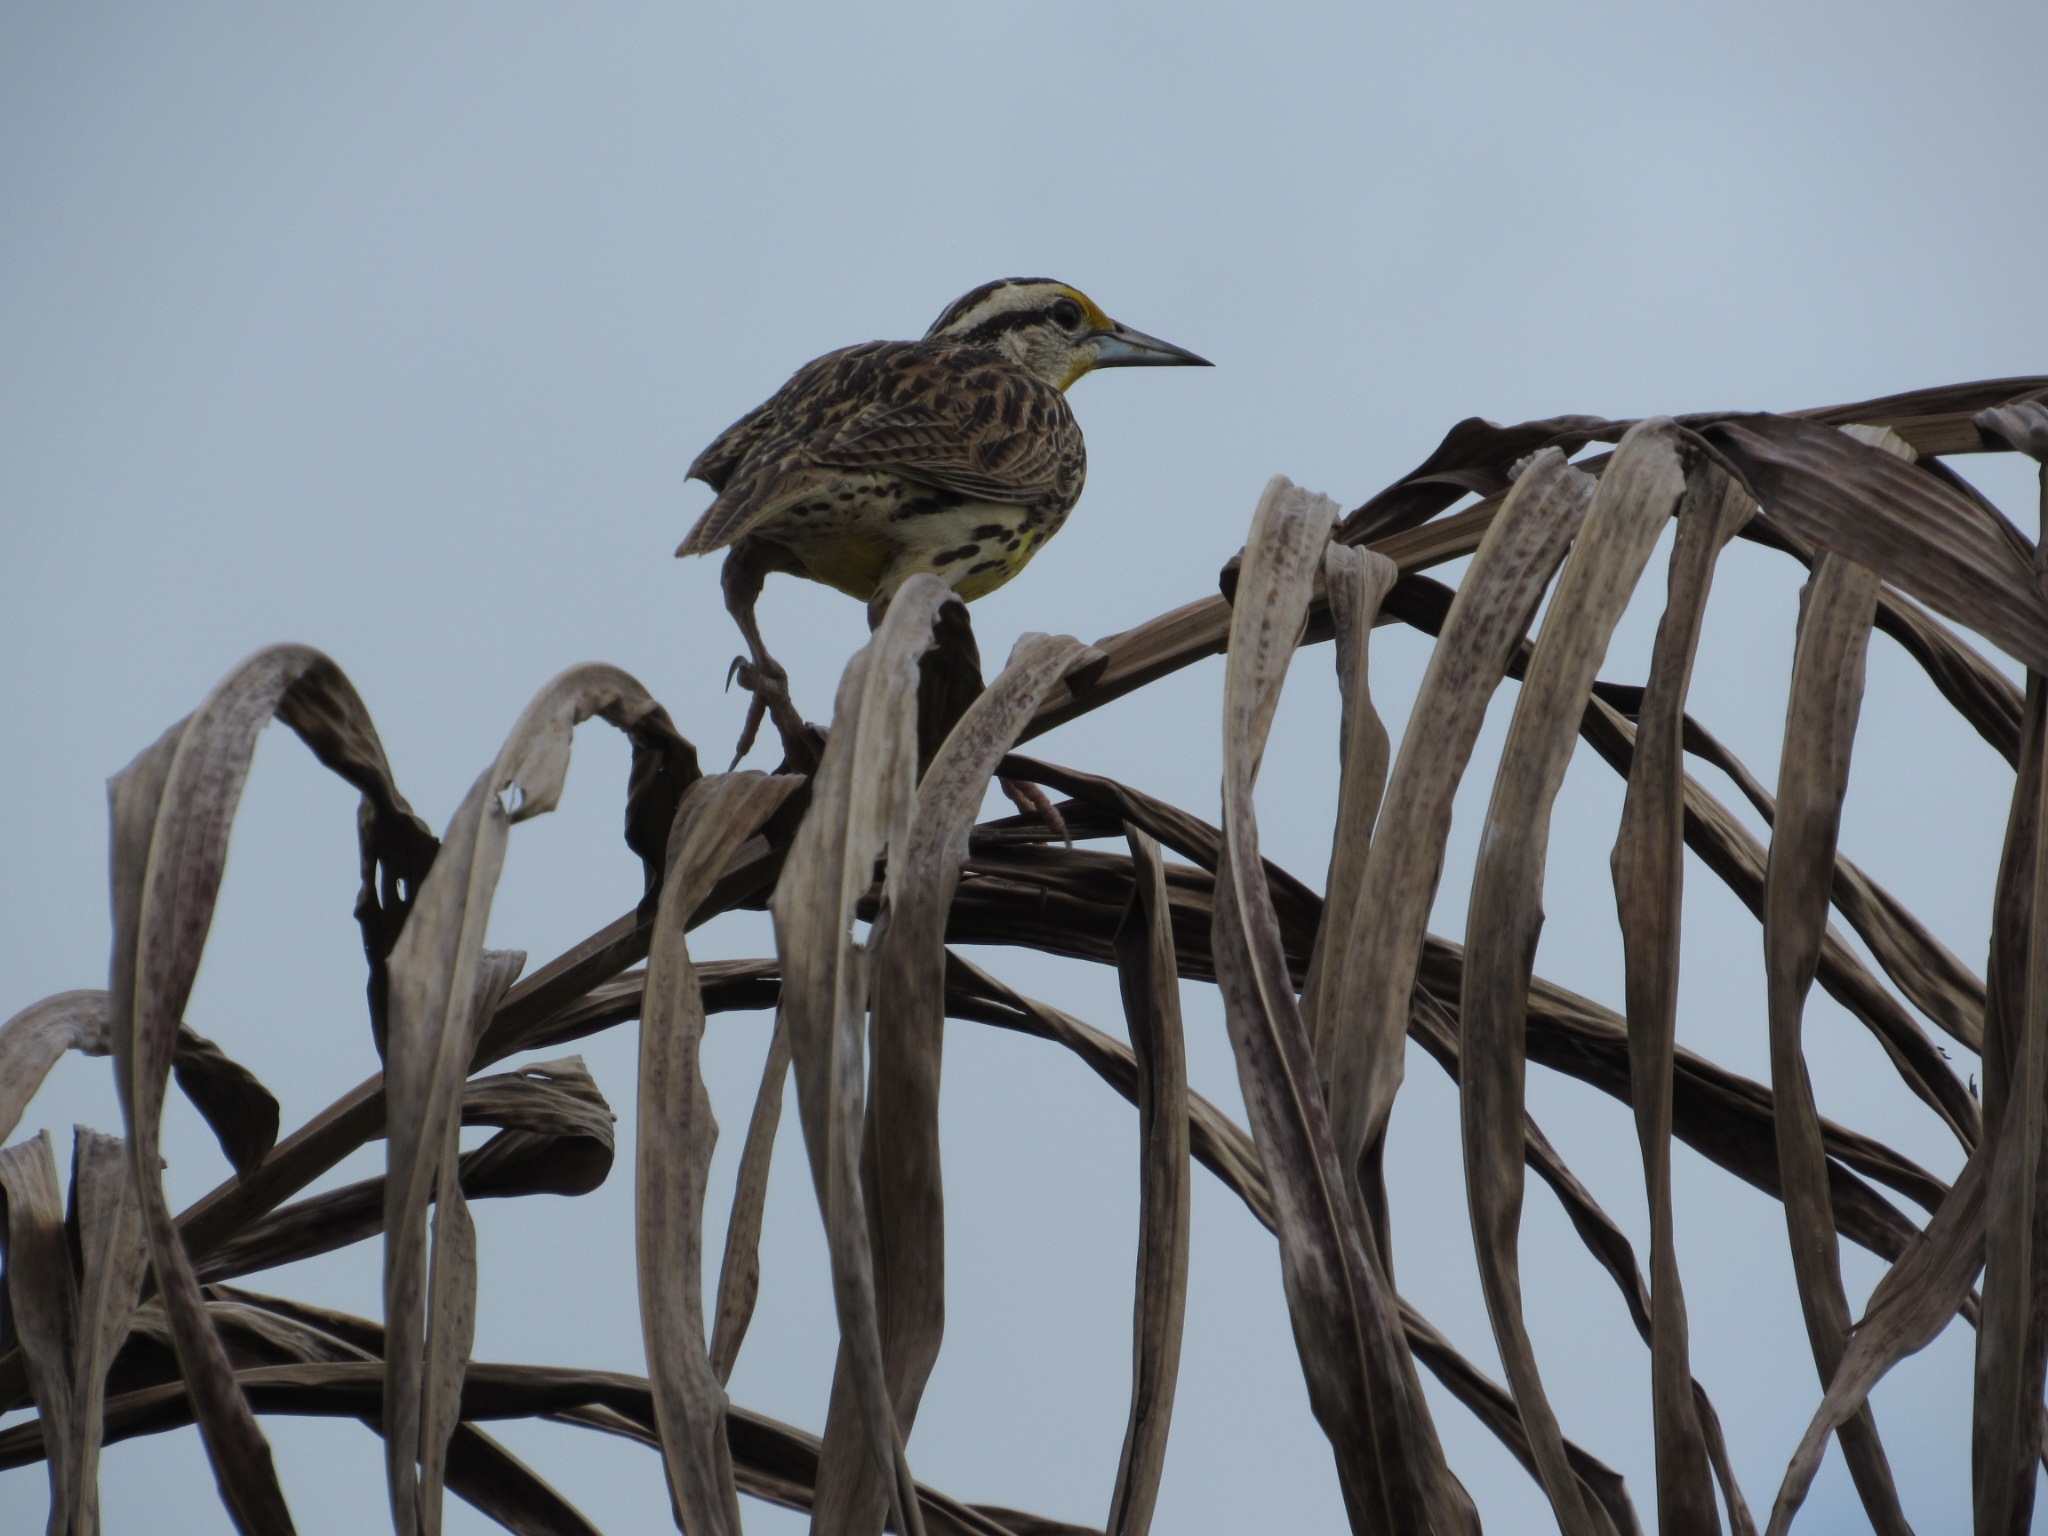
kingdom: Animalia
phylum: Chordata
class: Aves
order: Passeriformes
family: Icteridae
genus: Sturnella
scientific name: Sturnella magna
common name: Eastern meadowlark
